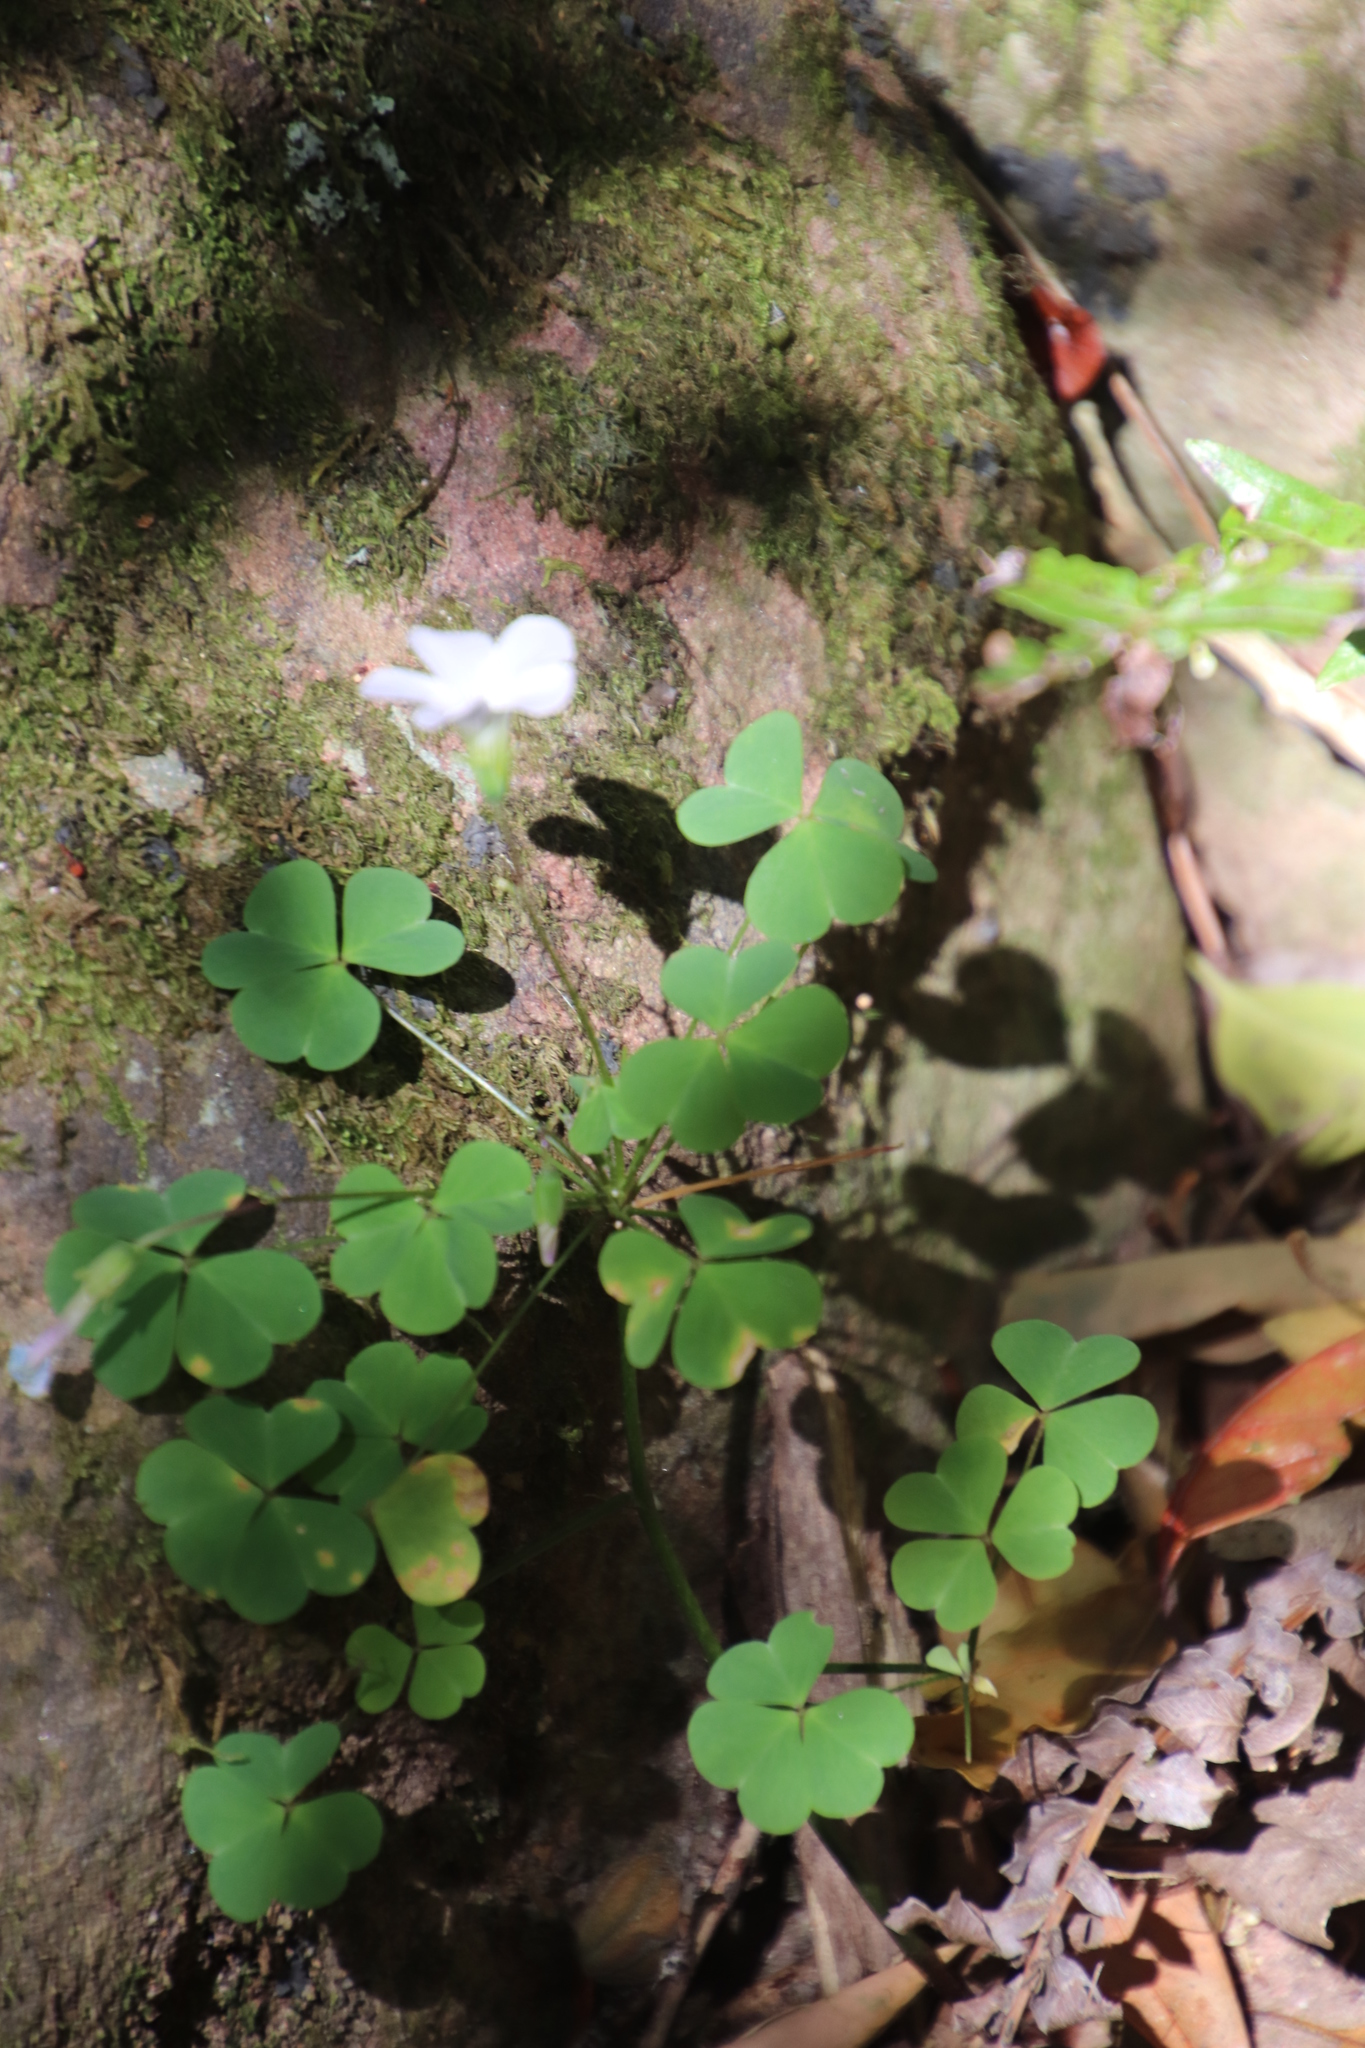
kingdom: Plantae
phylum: Tracheophyta
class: Magnoliopsida
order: Oxalidales
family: Oxalidaceae
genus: Oxalis
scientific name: Oxalis incarnata
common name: Pale pink-sorrel
